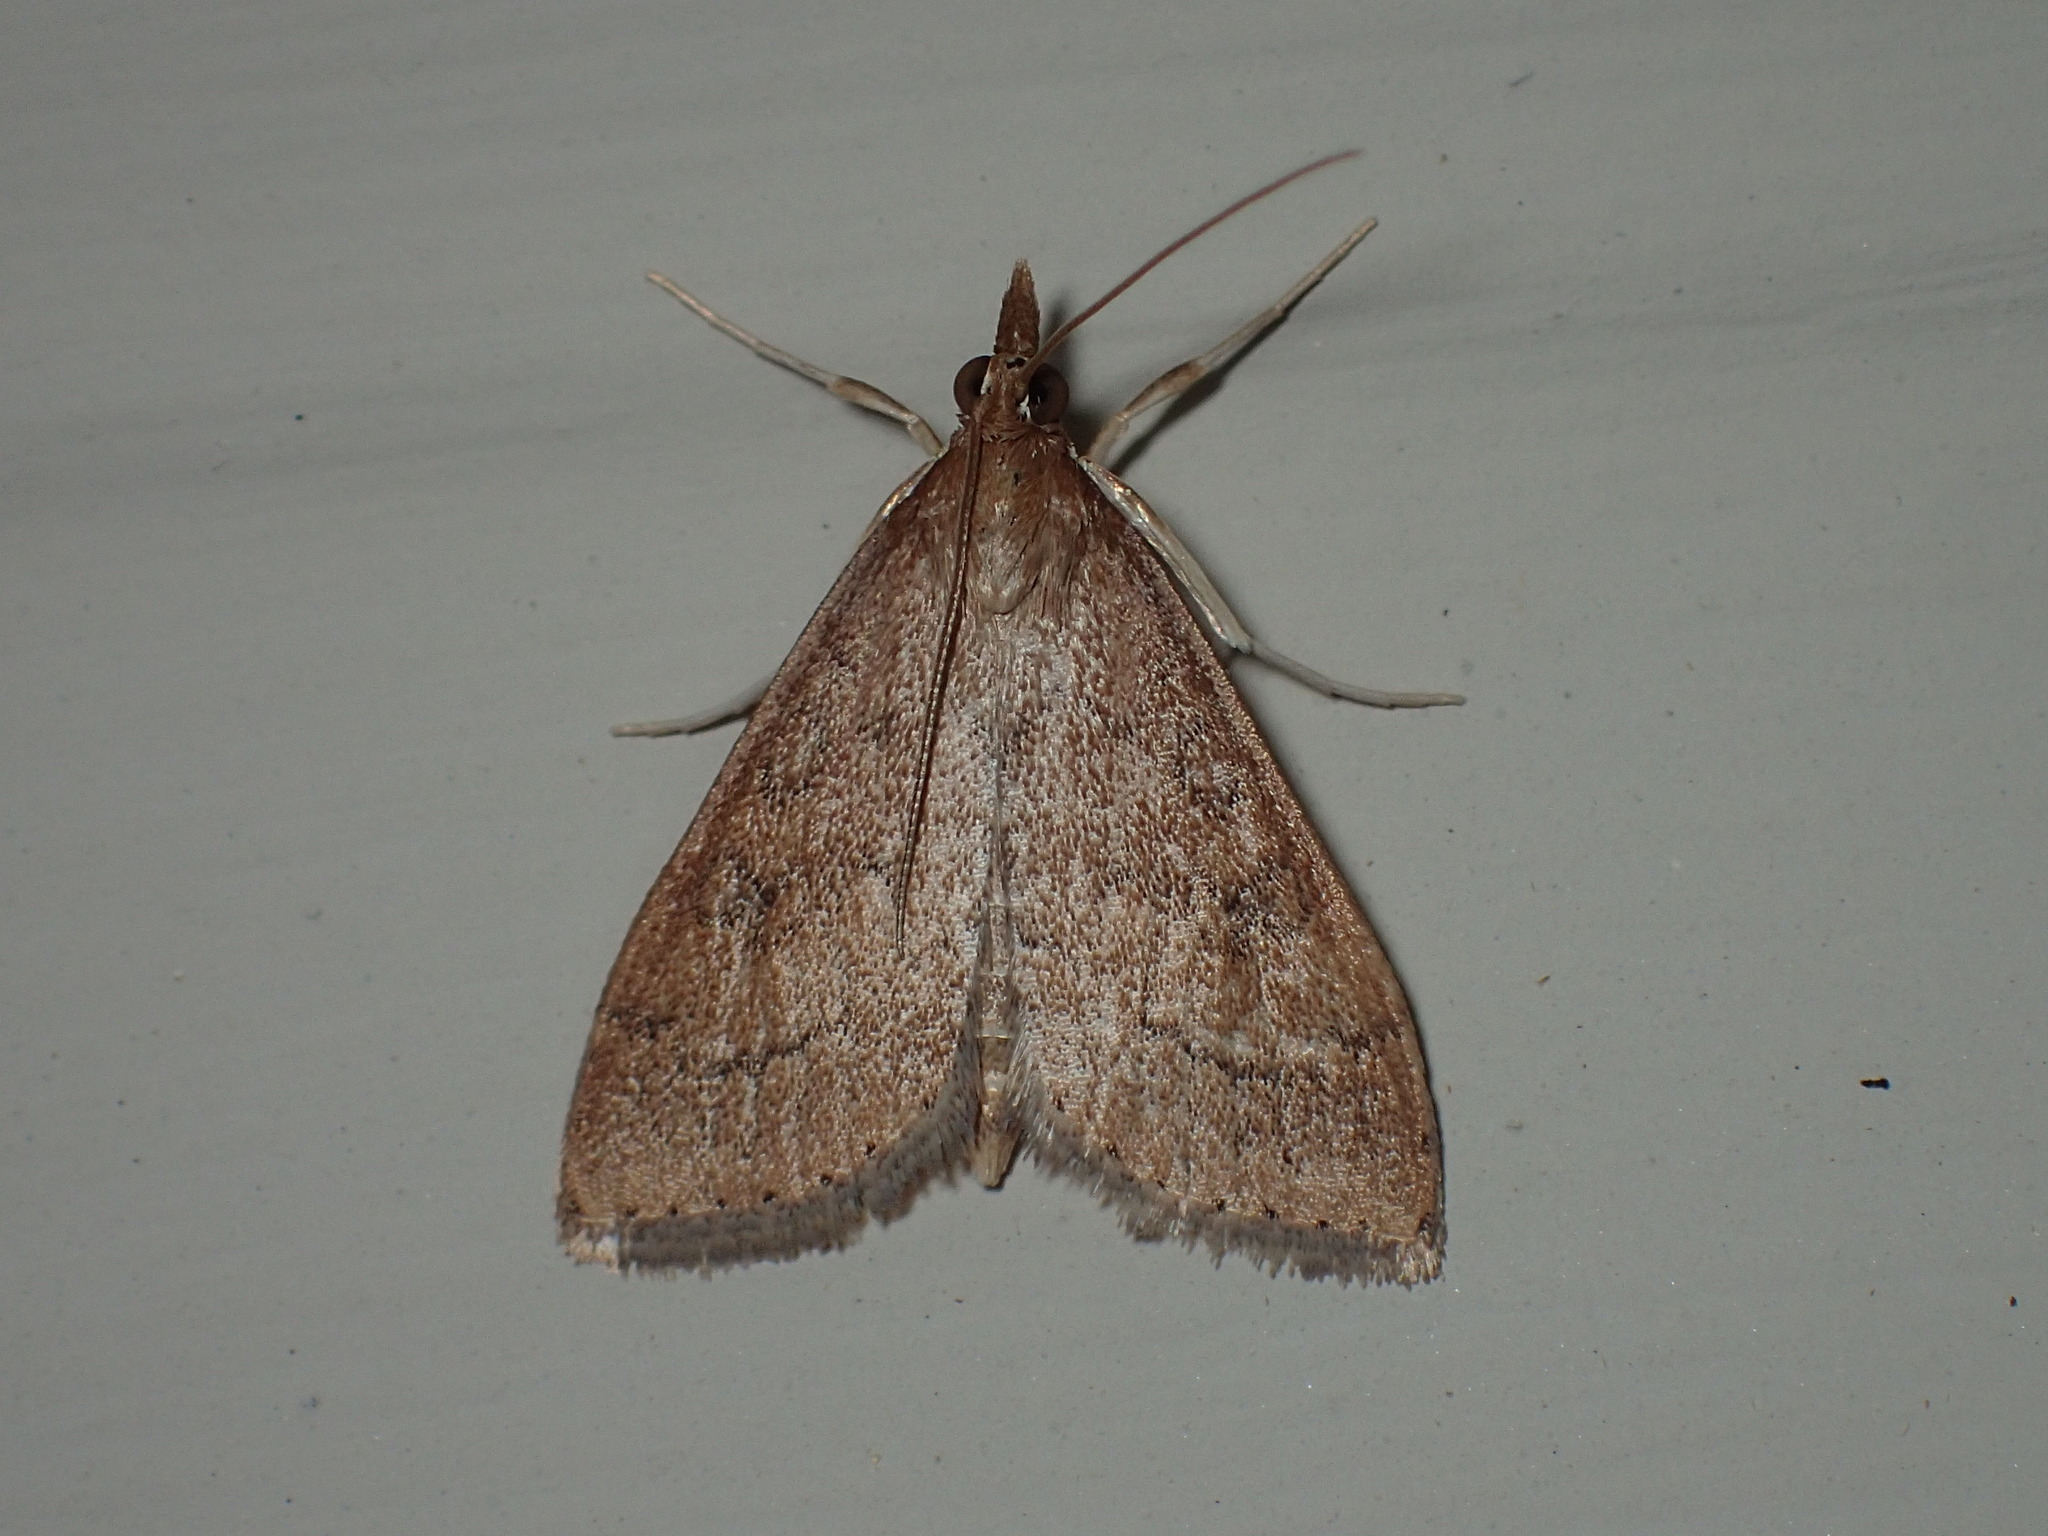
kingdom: Animalia
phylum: Arthropoda
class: Insecta
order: Lepidoptera
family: Crambidae
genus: Udea
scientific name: Udea rubigalis
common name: Celery leaftier moth
